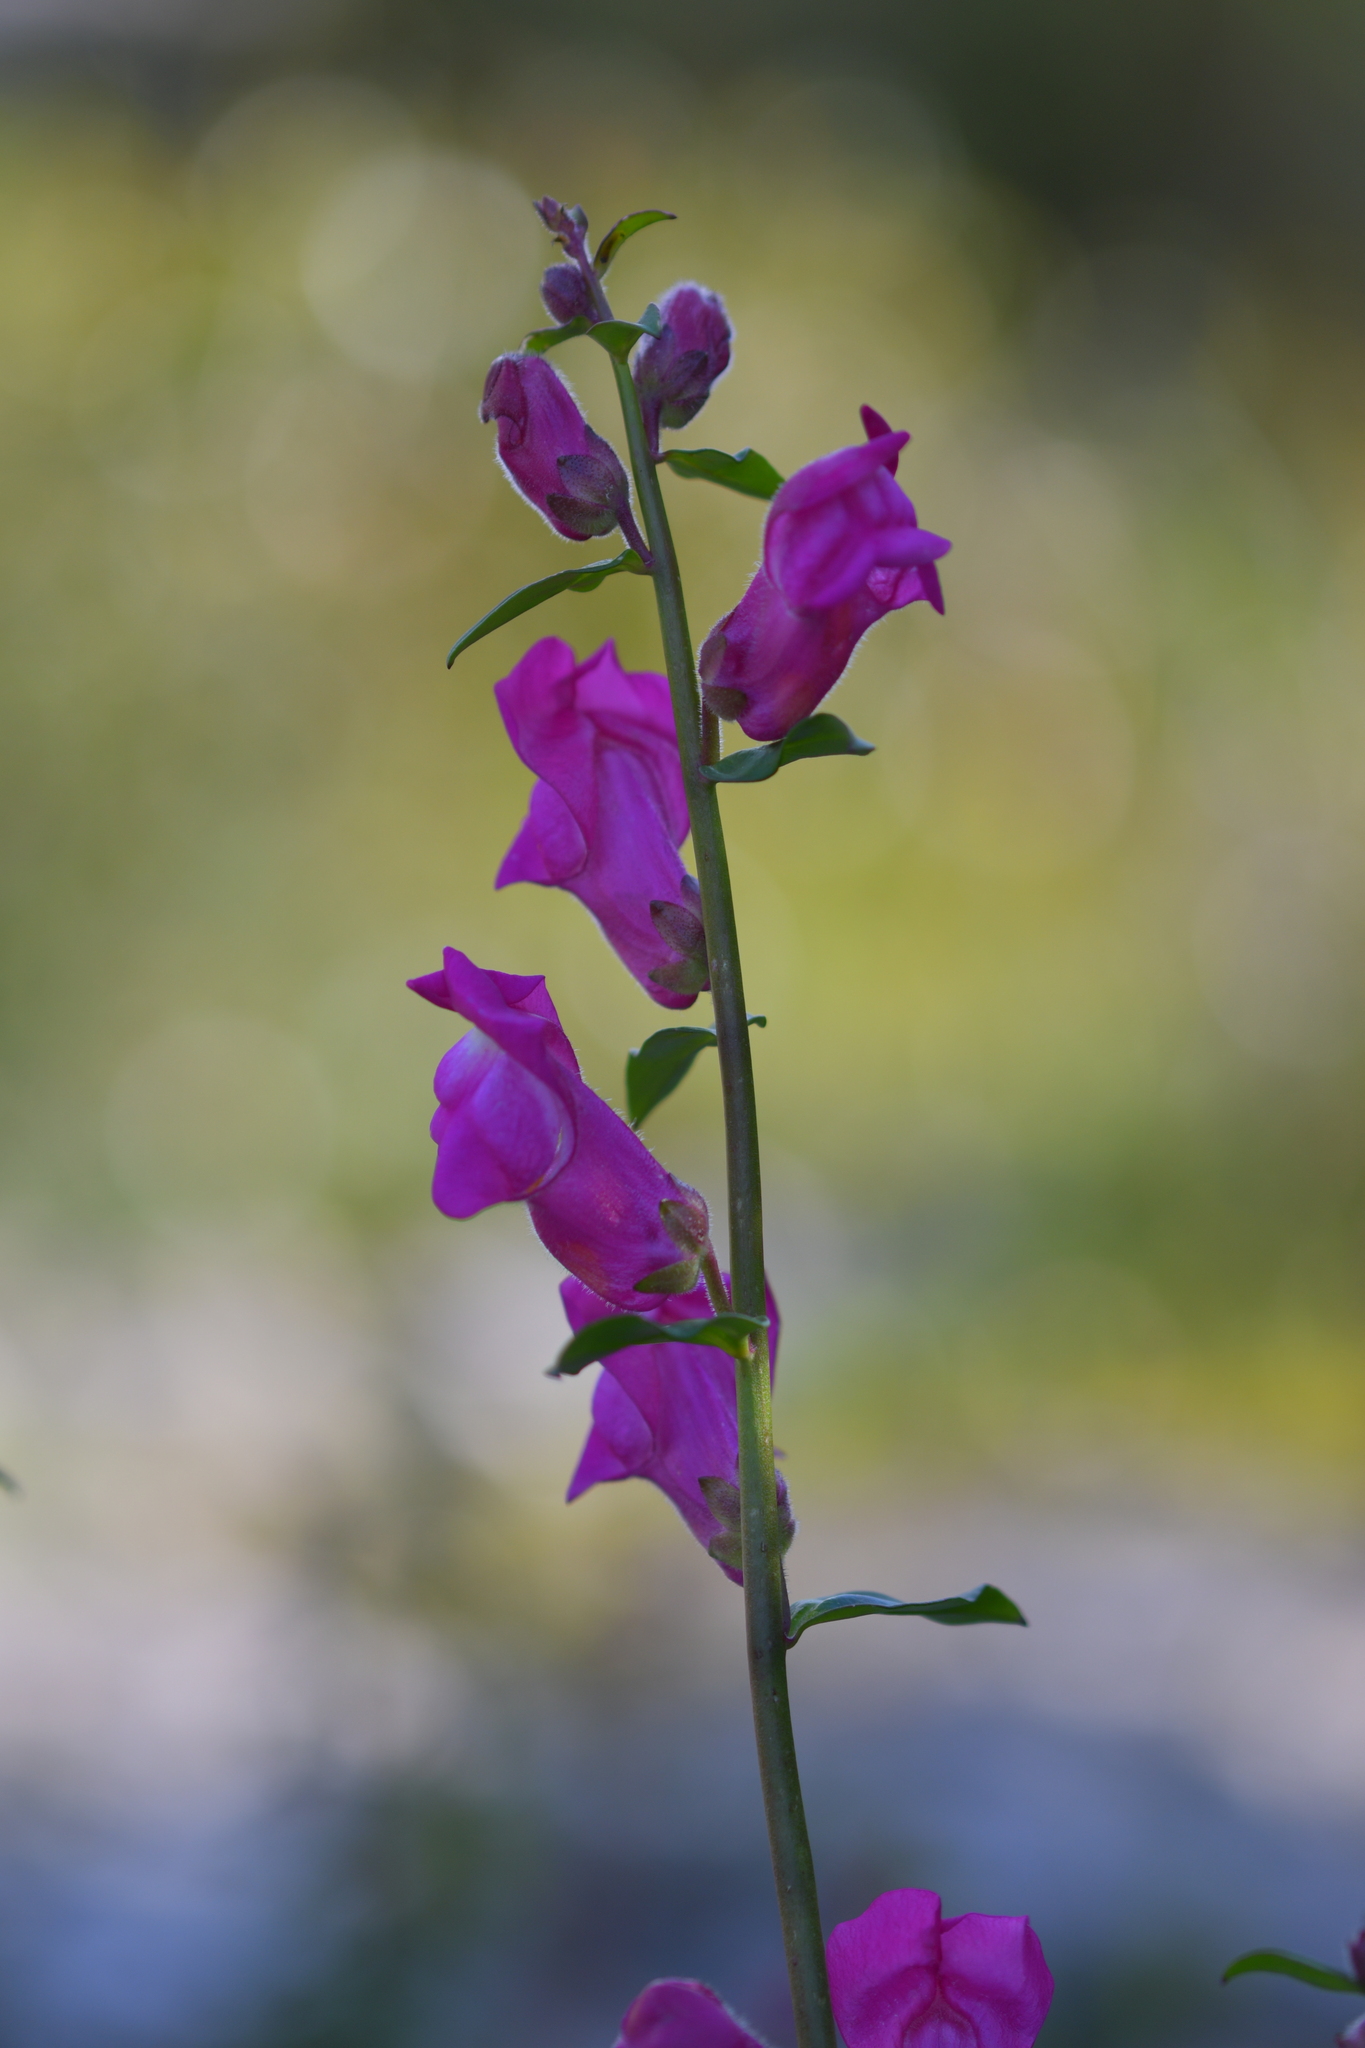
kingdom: Plantae
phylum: Tracheophyta
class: Magnoliopsida
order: Lamiales
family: Plantaginaceae
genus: Antirrhinum
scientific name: Antirrhinum linkianum
